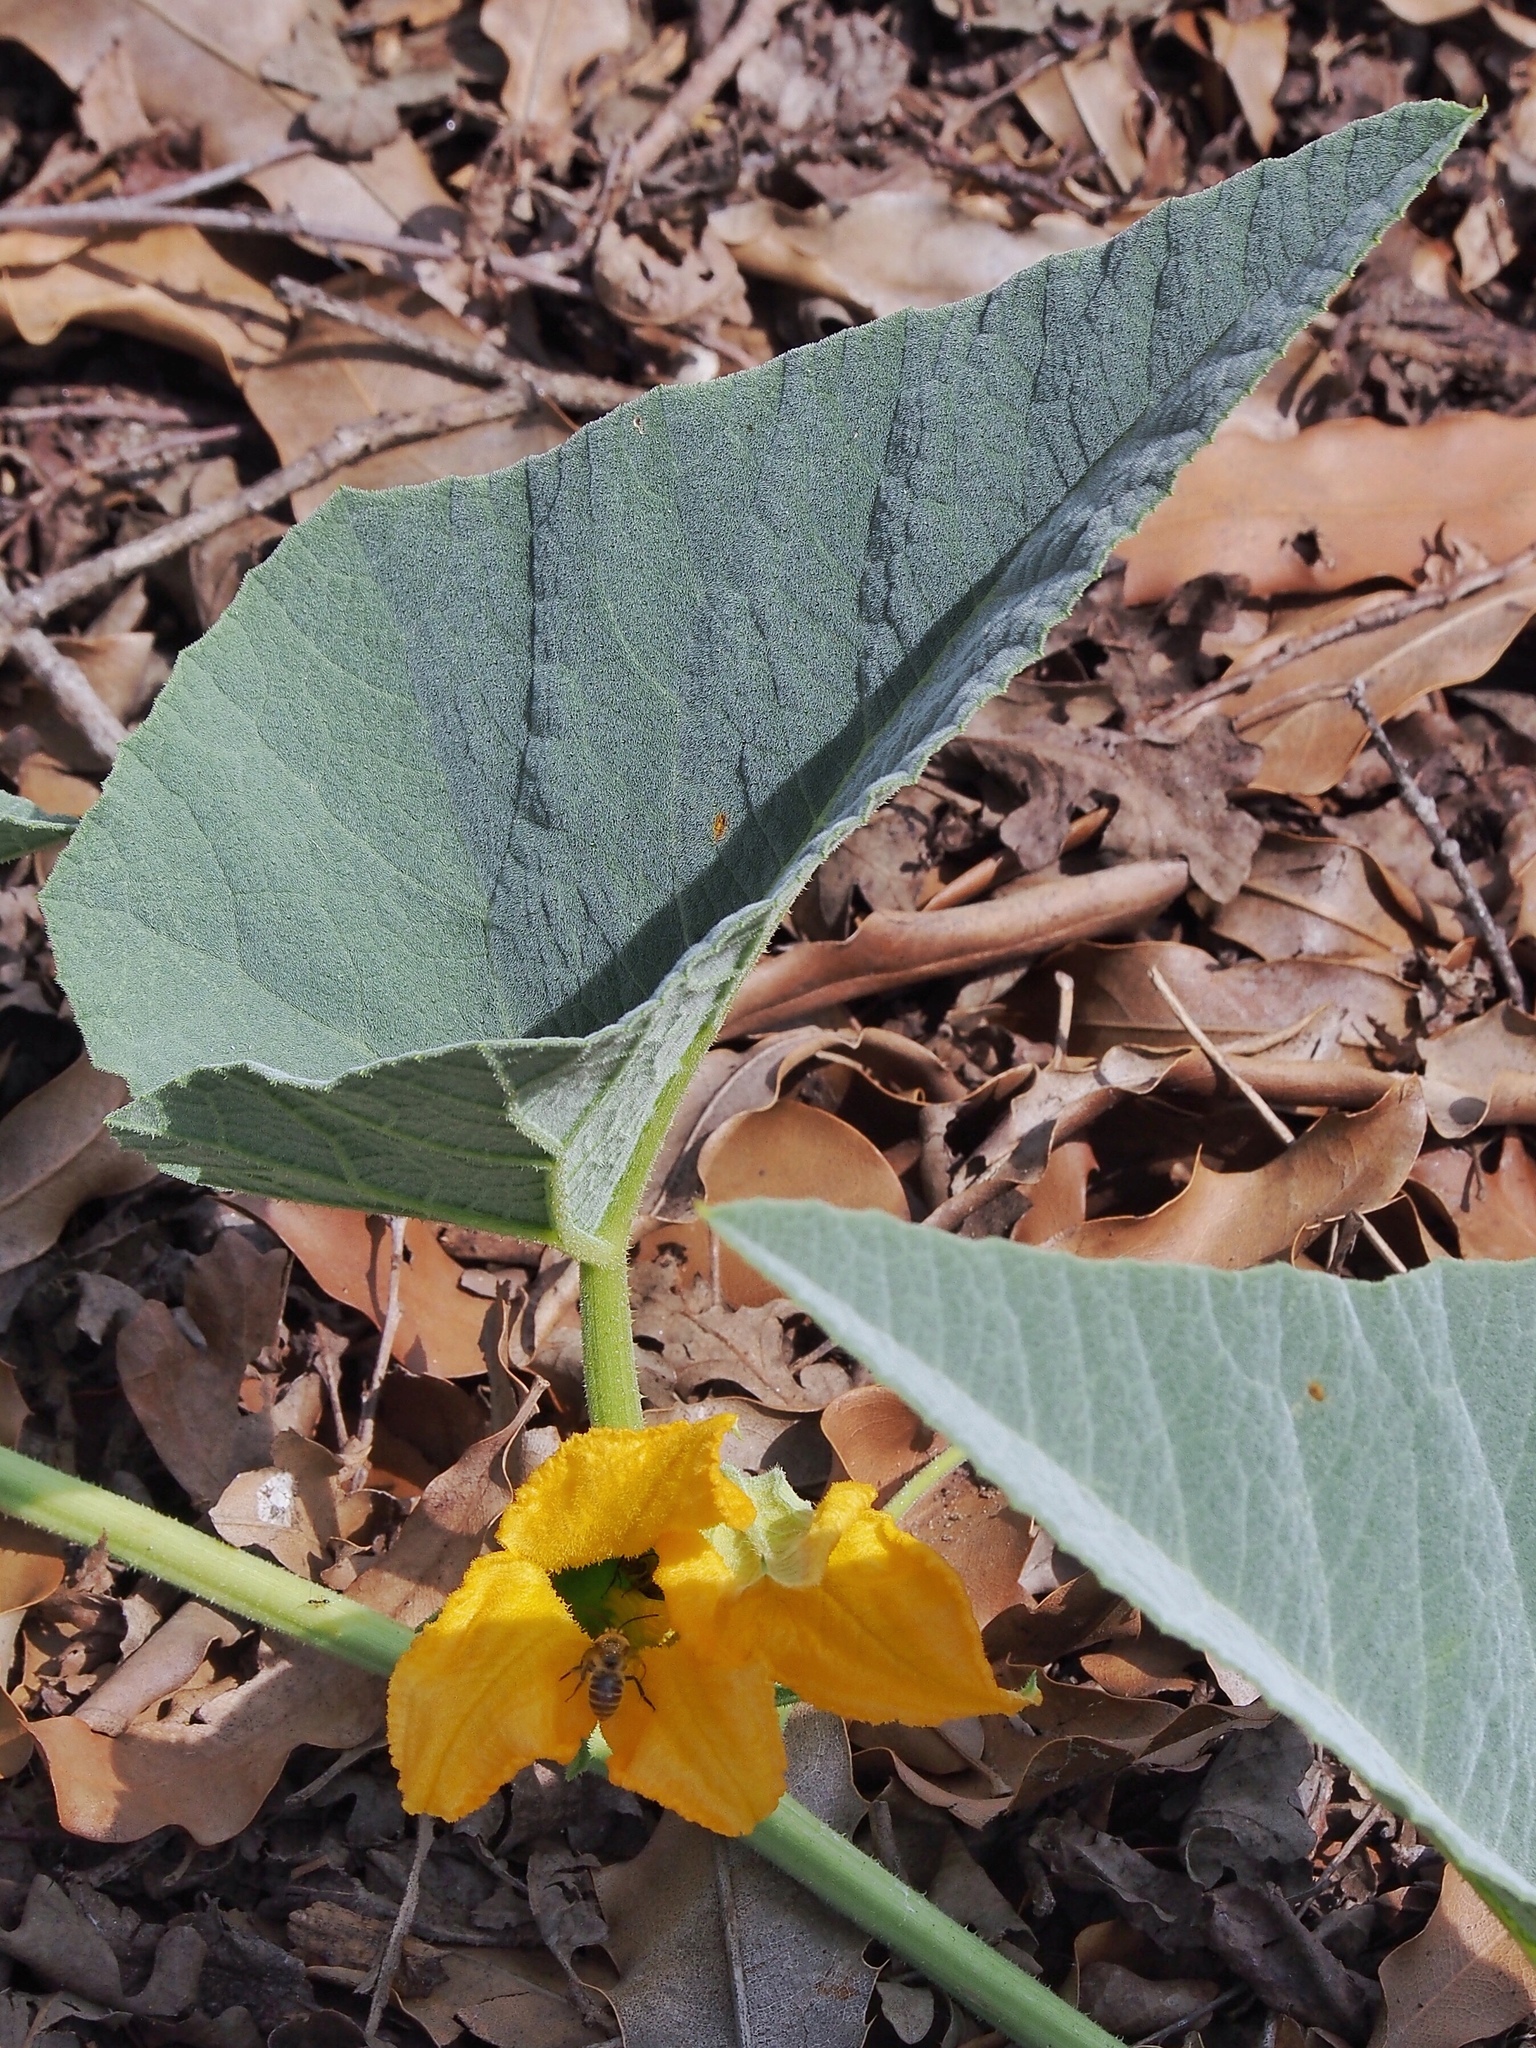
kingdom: Animalia
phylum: Arthropoda
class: Insecta
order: Hymenoptera
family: Apidae
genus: Peponapis
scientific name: Peponapis pruinosa
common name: Pruinose squash bee
